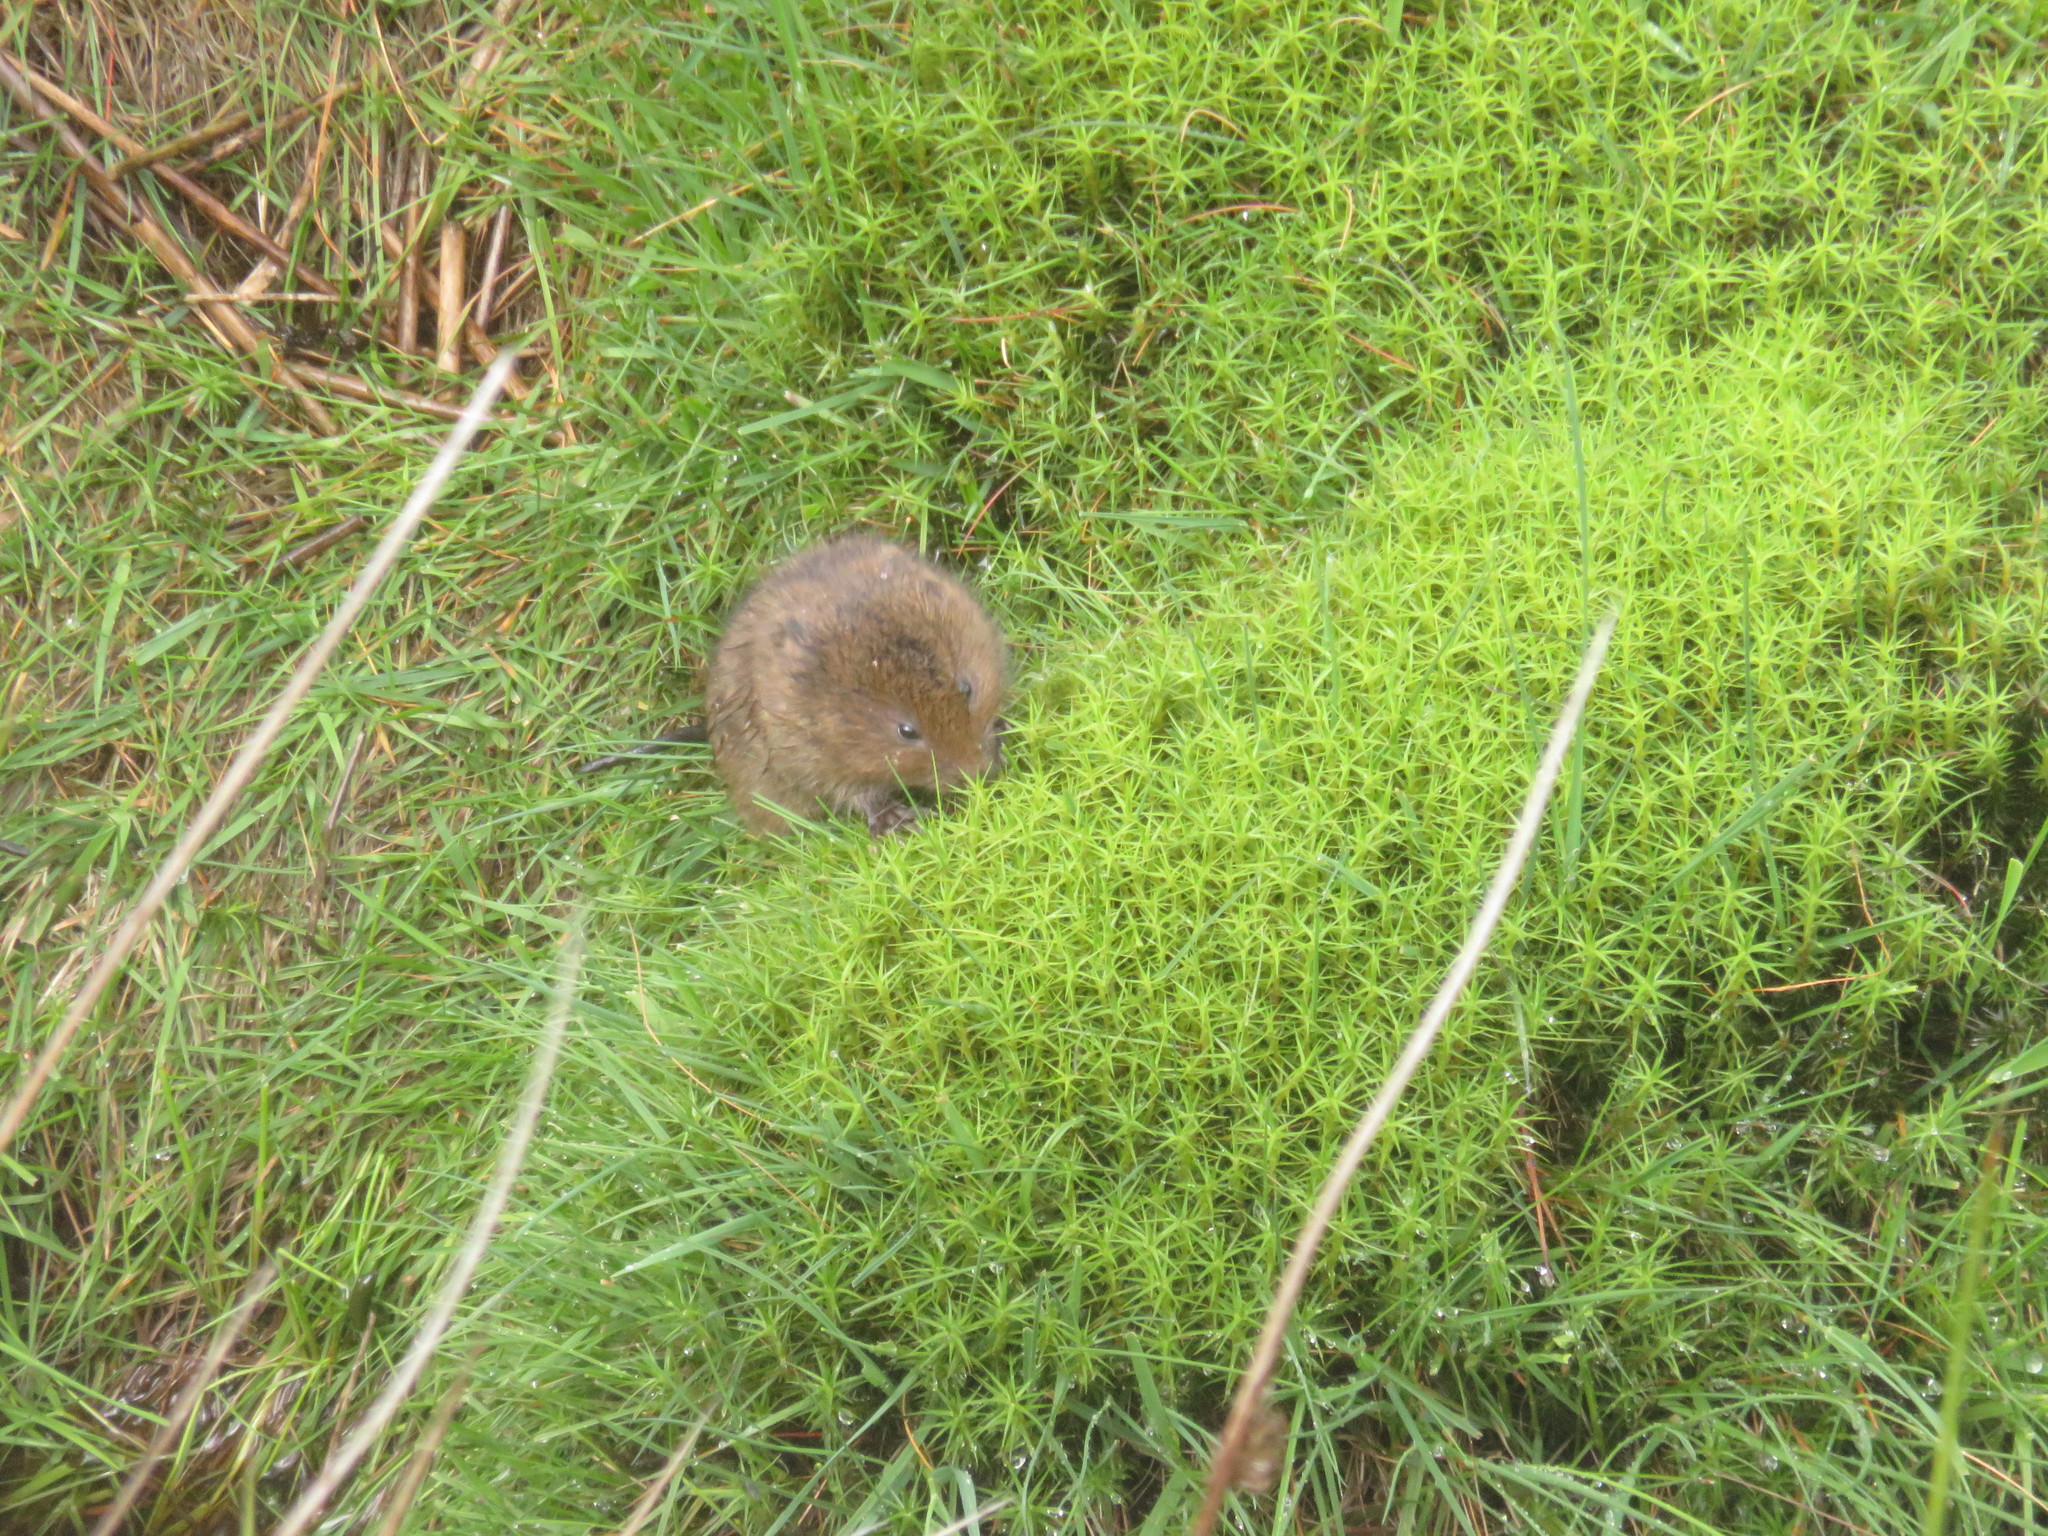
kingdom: Animalia
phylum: Chordata
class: Mammalia
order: Rodentia
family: Cricetidae
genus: Arvicola
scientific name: Arvicola amphibius
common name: European water vole
